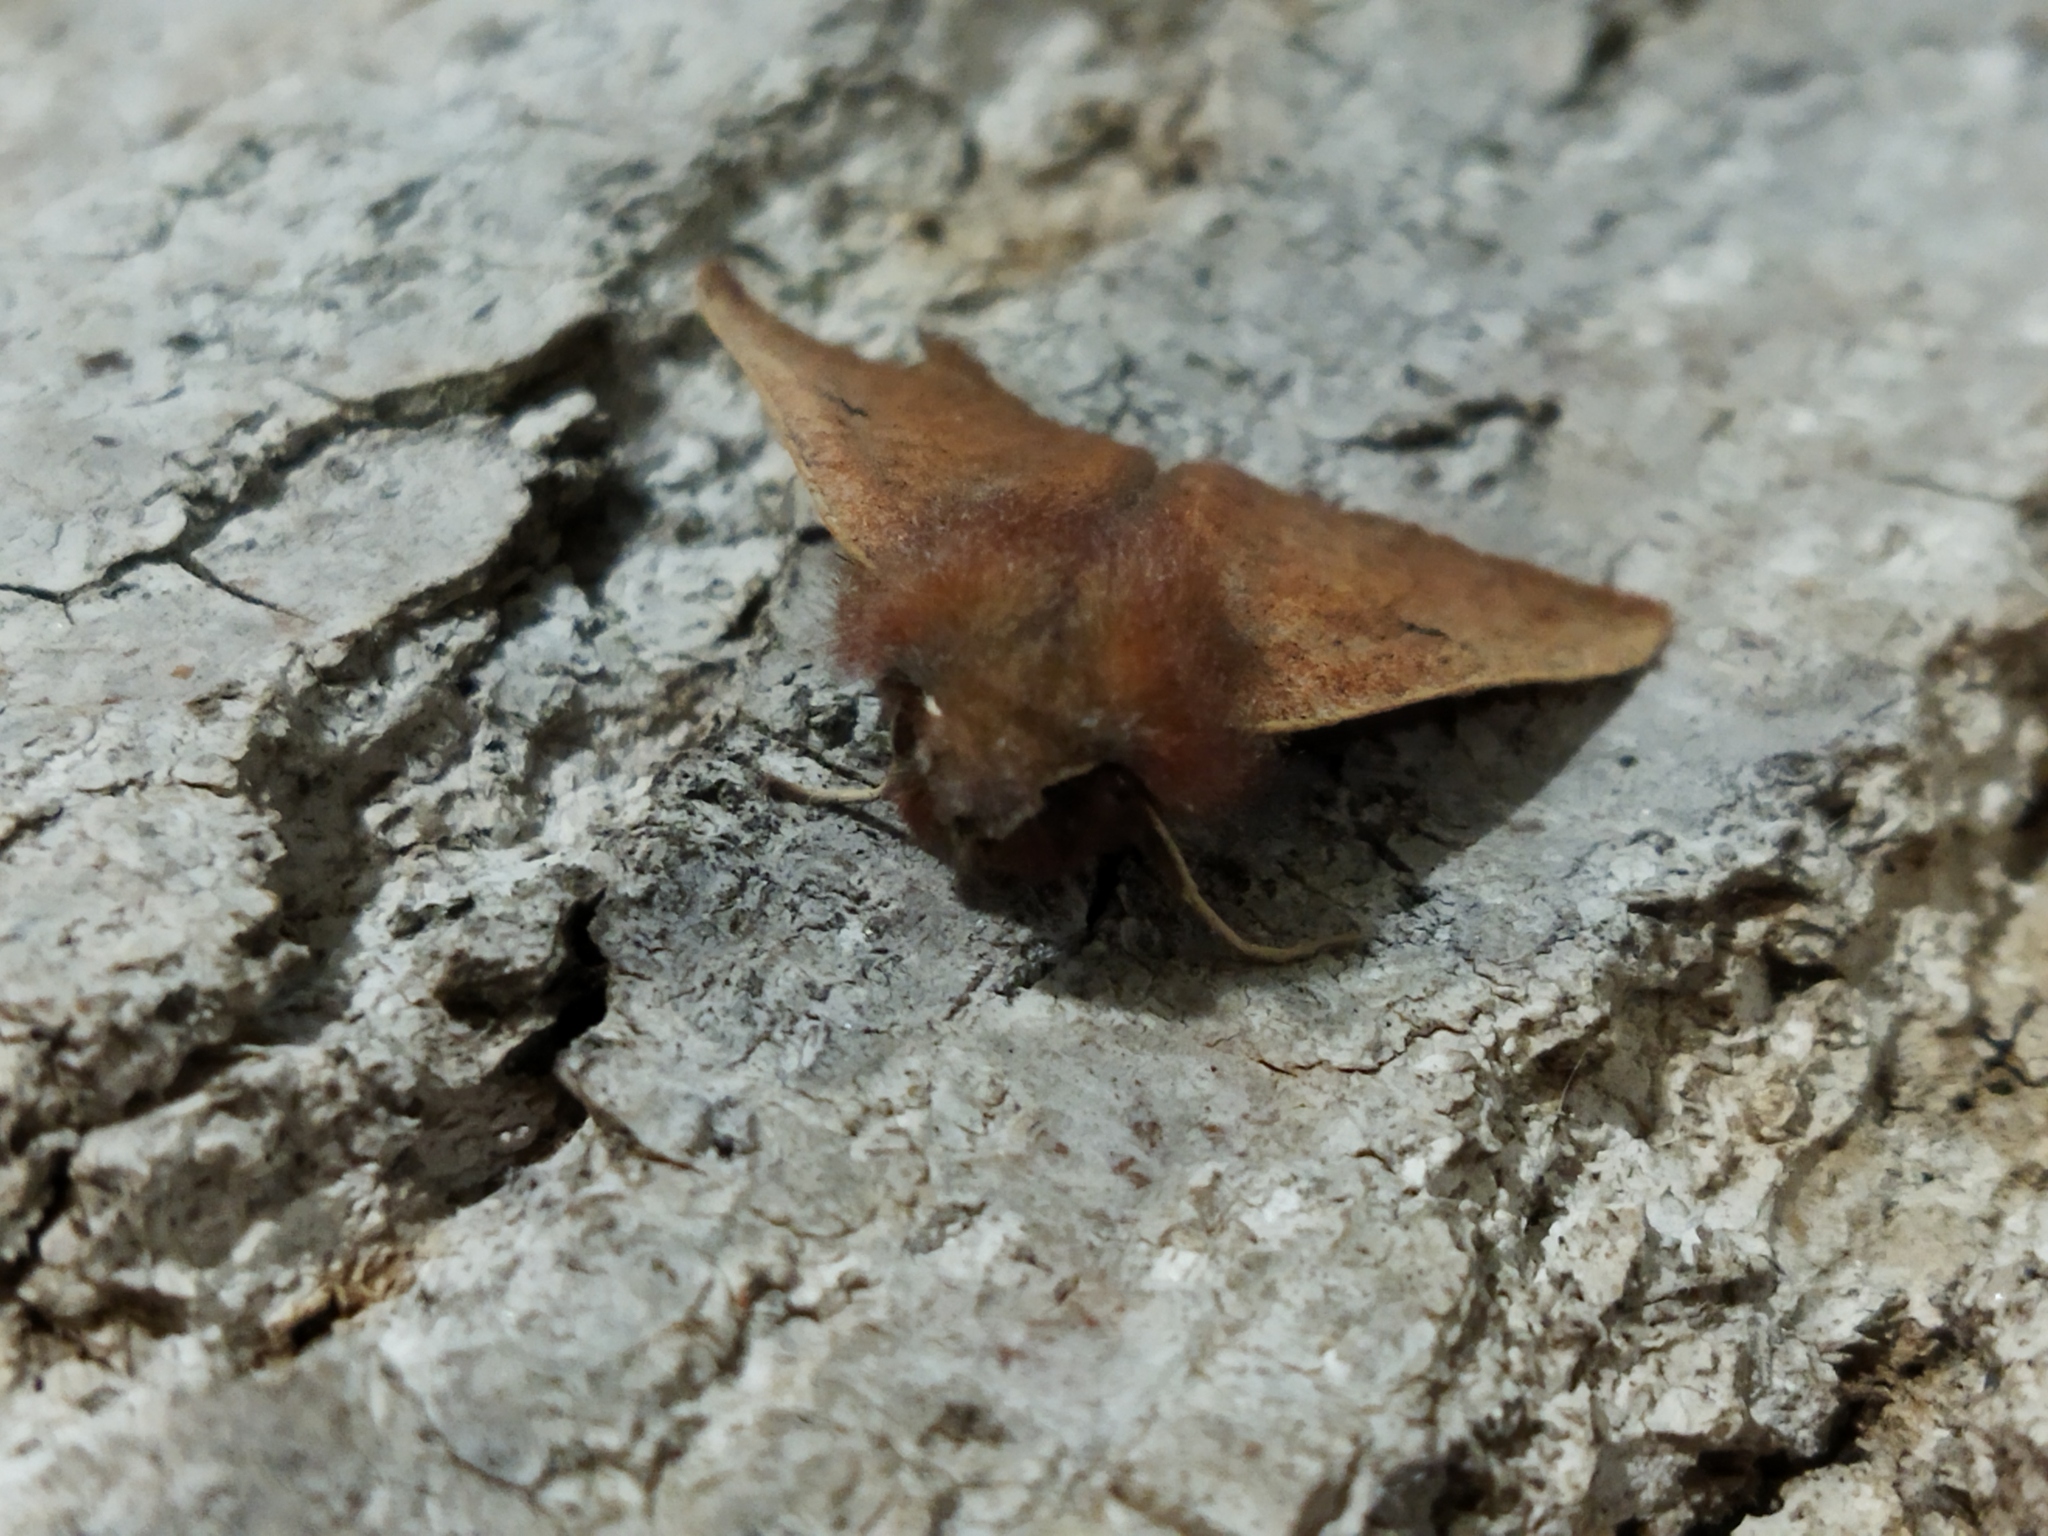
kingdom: Animalia
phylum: Arthropoda
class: Insecta
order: Lepidoptera
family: Geometridae
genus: Dasycorsa
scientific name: Dasycorsa modesta
